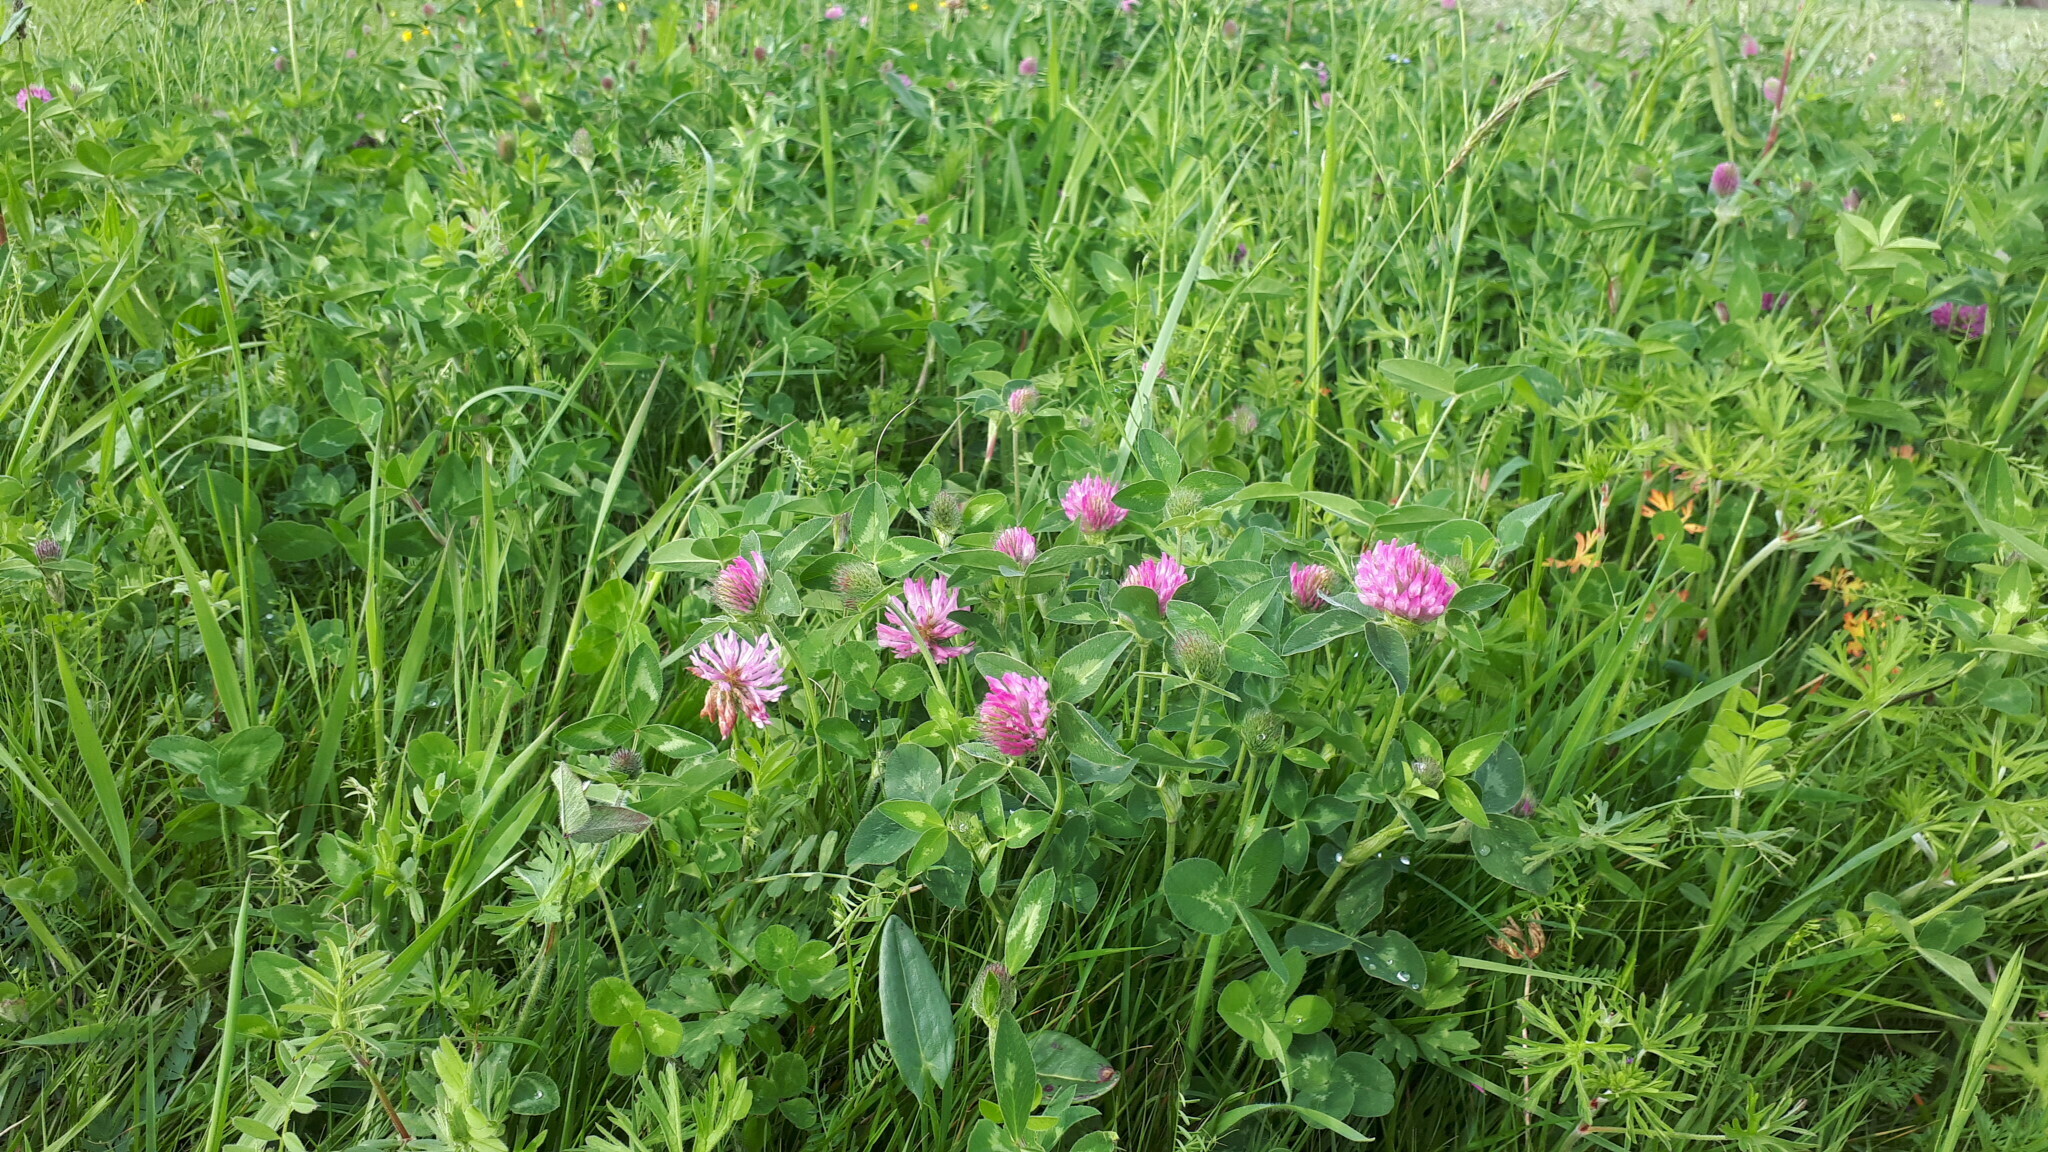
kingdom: Plantae
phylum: Tracheophyta
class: Magnoliopsida
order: Fabales
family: Fabaceae
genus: Trifolium
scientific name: Trifolium pratense
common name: Red clover
